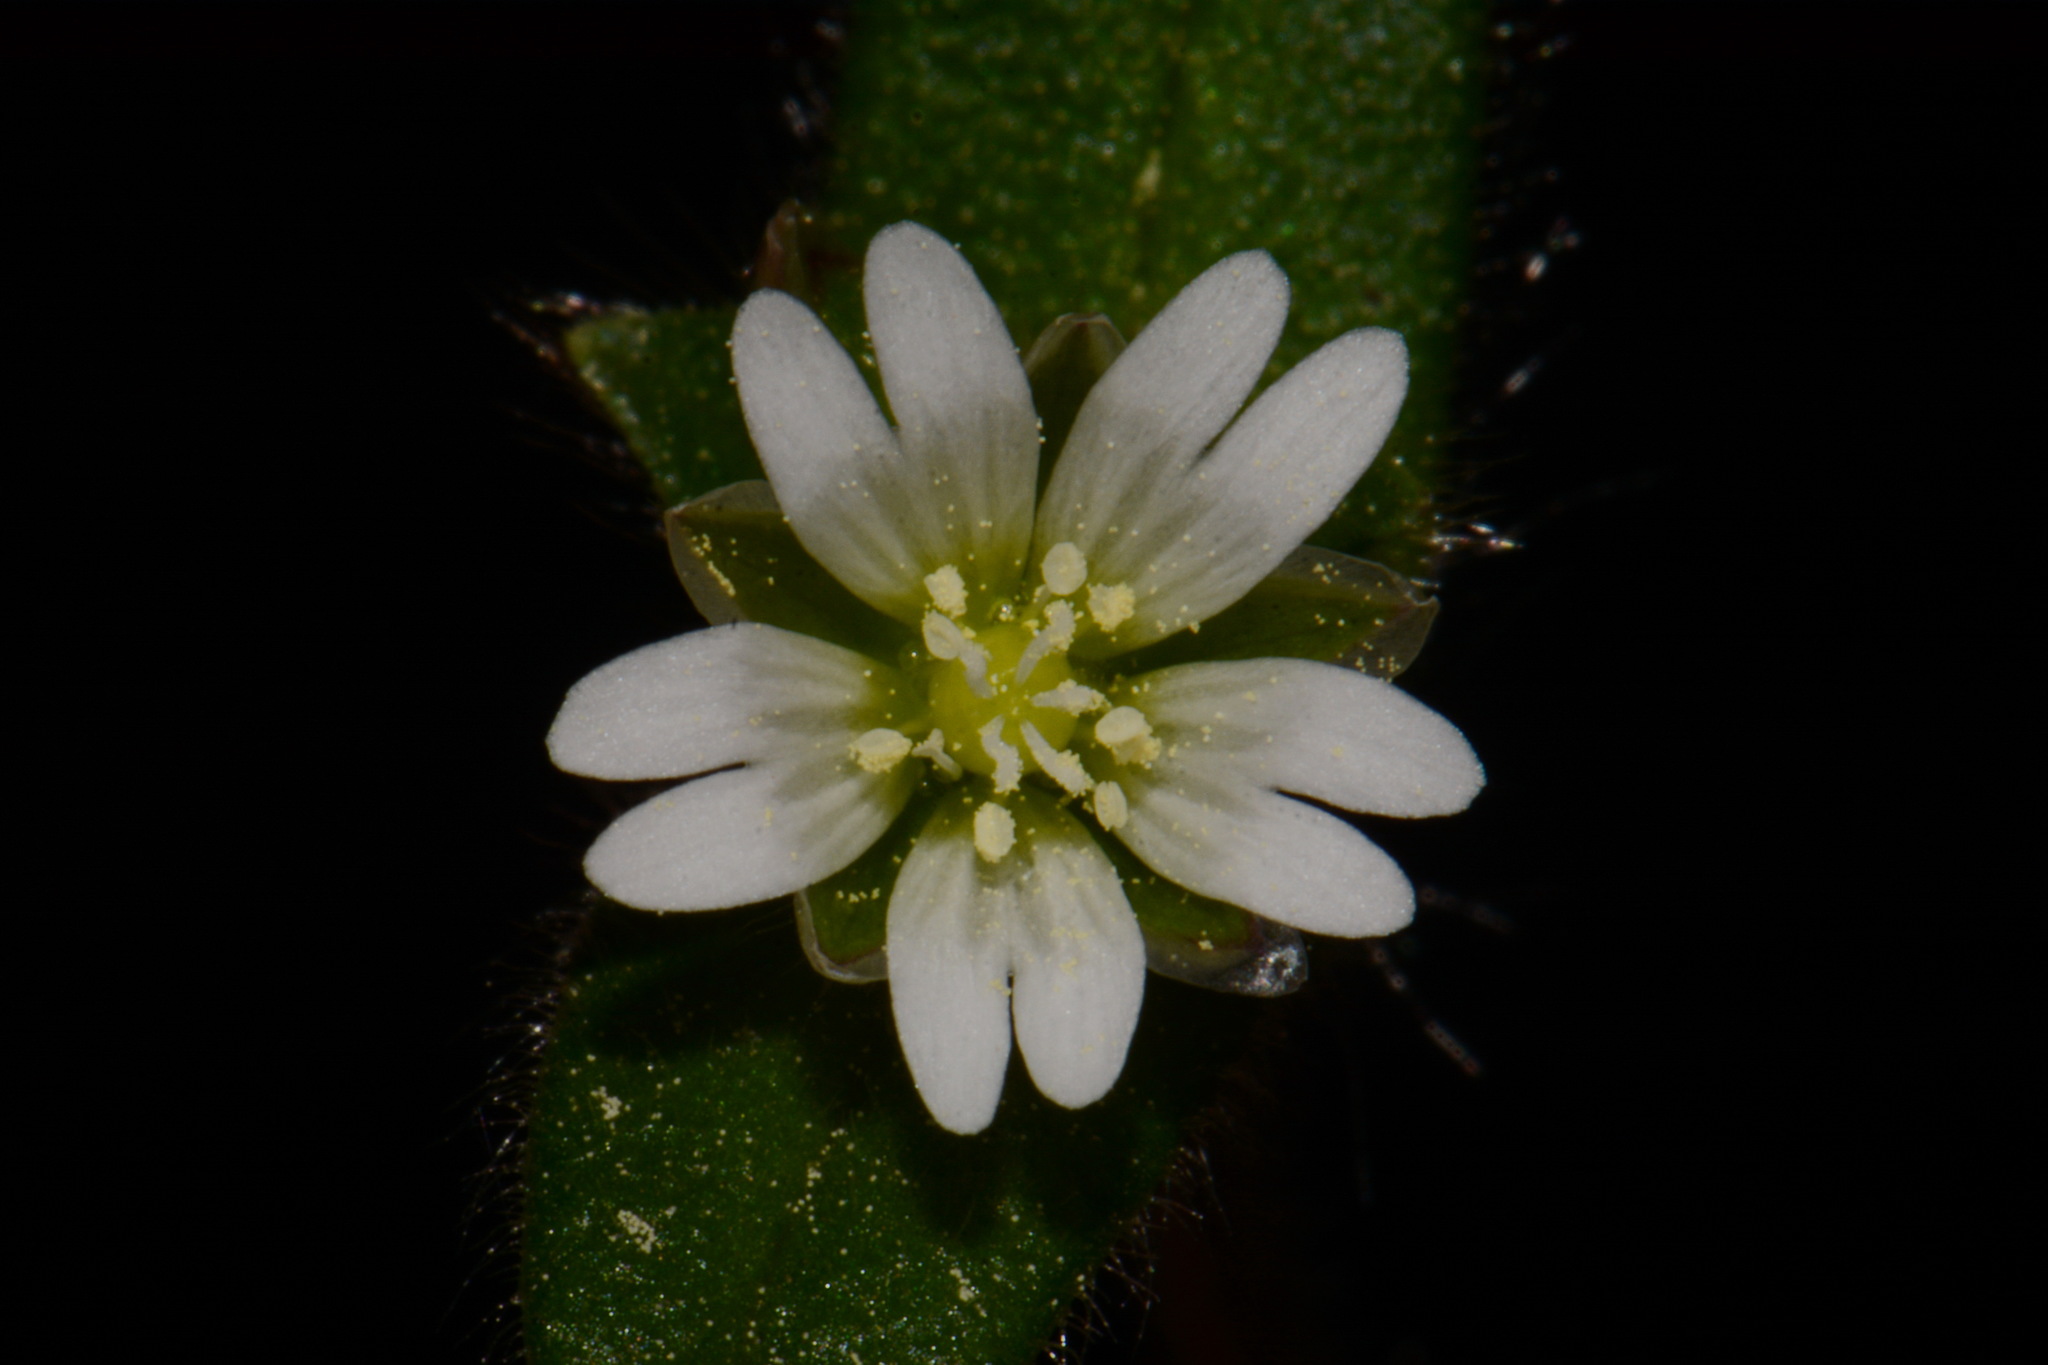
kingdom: Plantae
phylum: Tracheophyta
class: Magnoliopsida
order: Caryophyllales
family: Caryophyllaceae
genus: Cerastium
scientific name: Cerastium pumilum
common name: Dwarf mouse-ear
